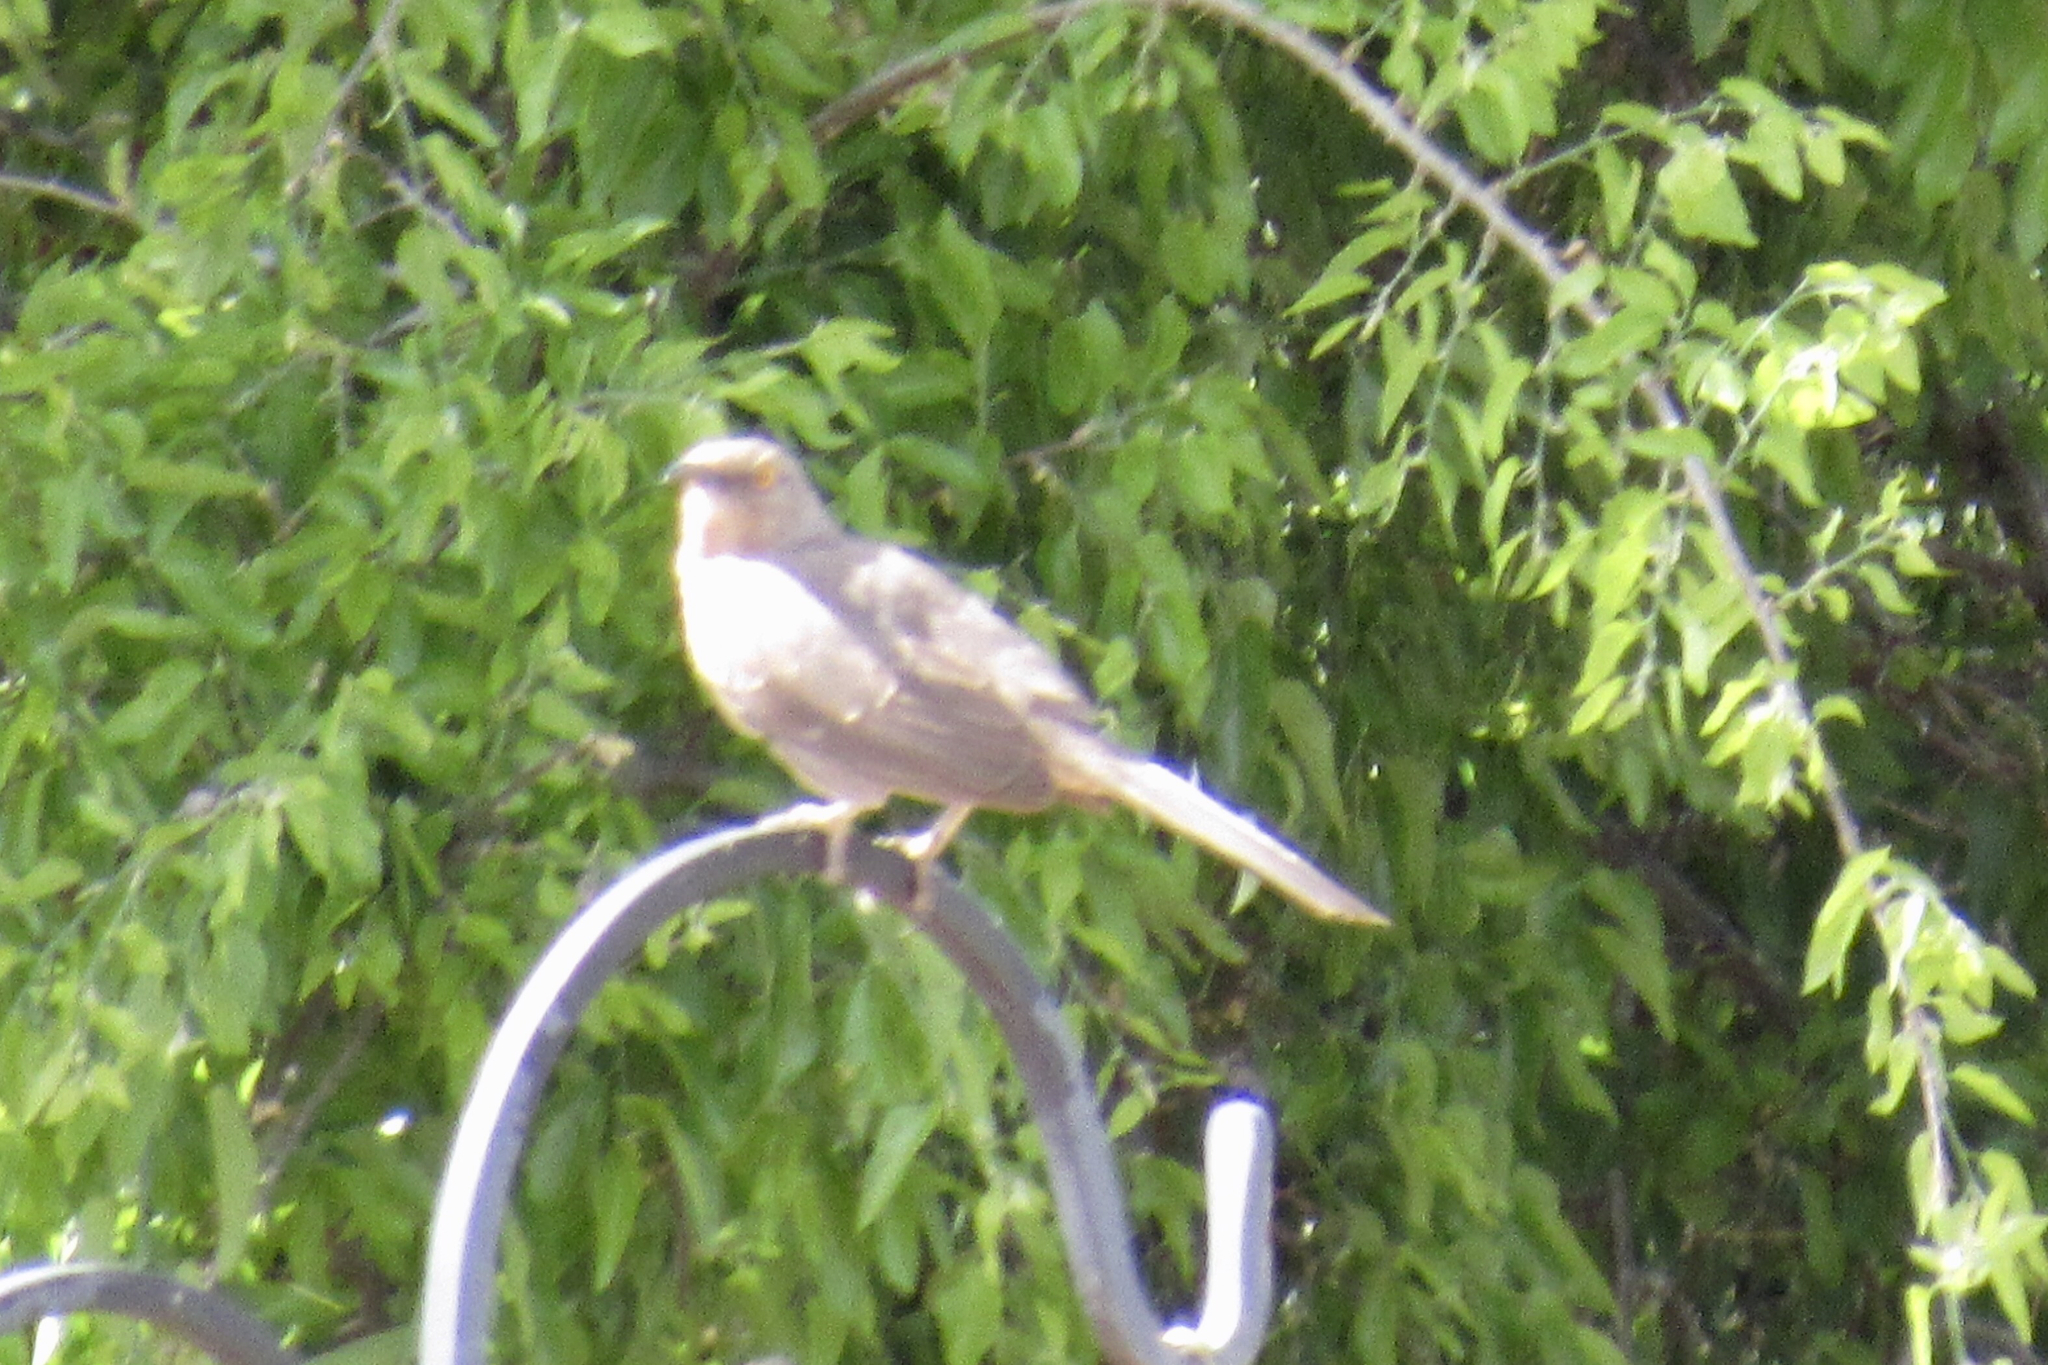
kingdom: Animalia
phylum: Chordata
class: Aves
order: Passeriformes
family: Mimidae
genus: Toxostoma
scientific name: Toxostoma curvirostre
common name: Curve-billed thrasher
